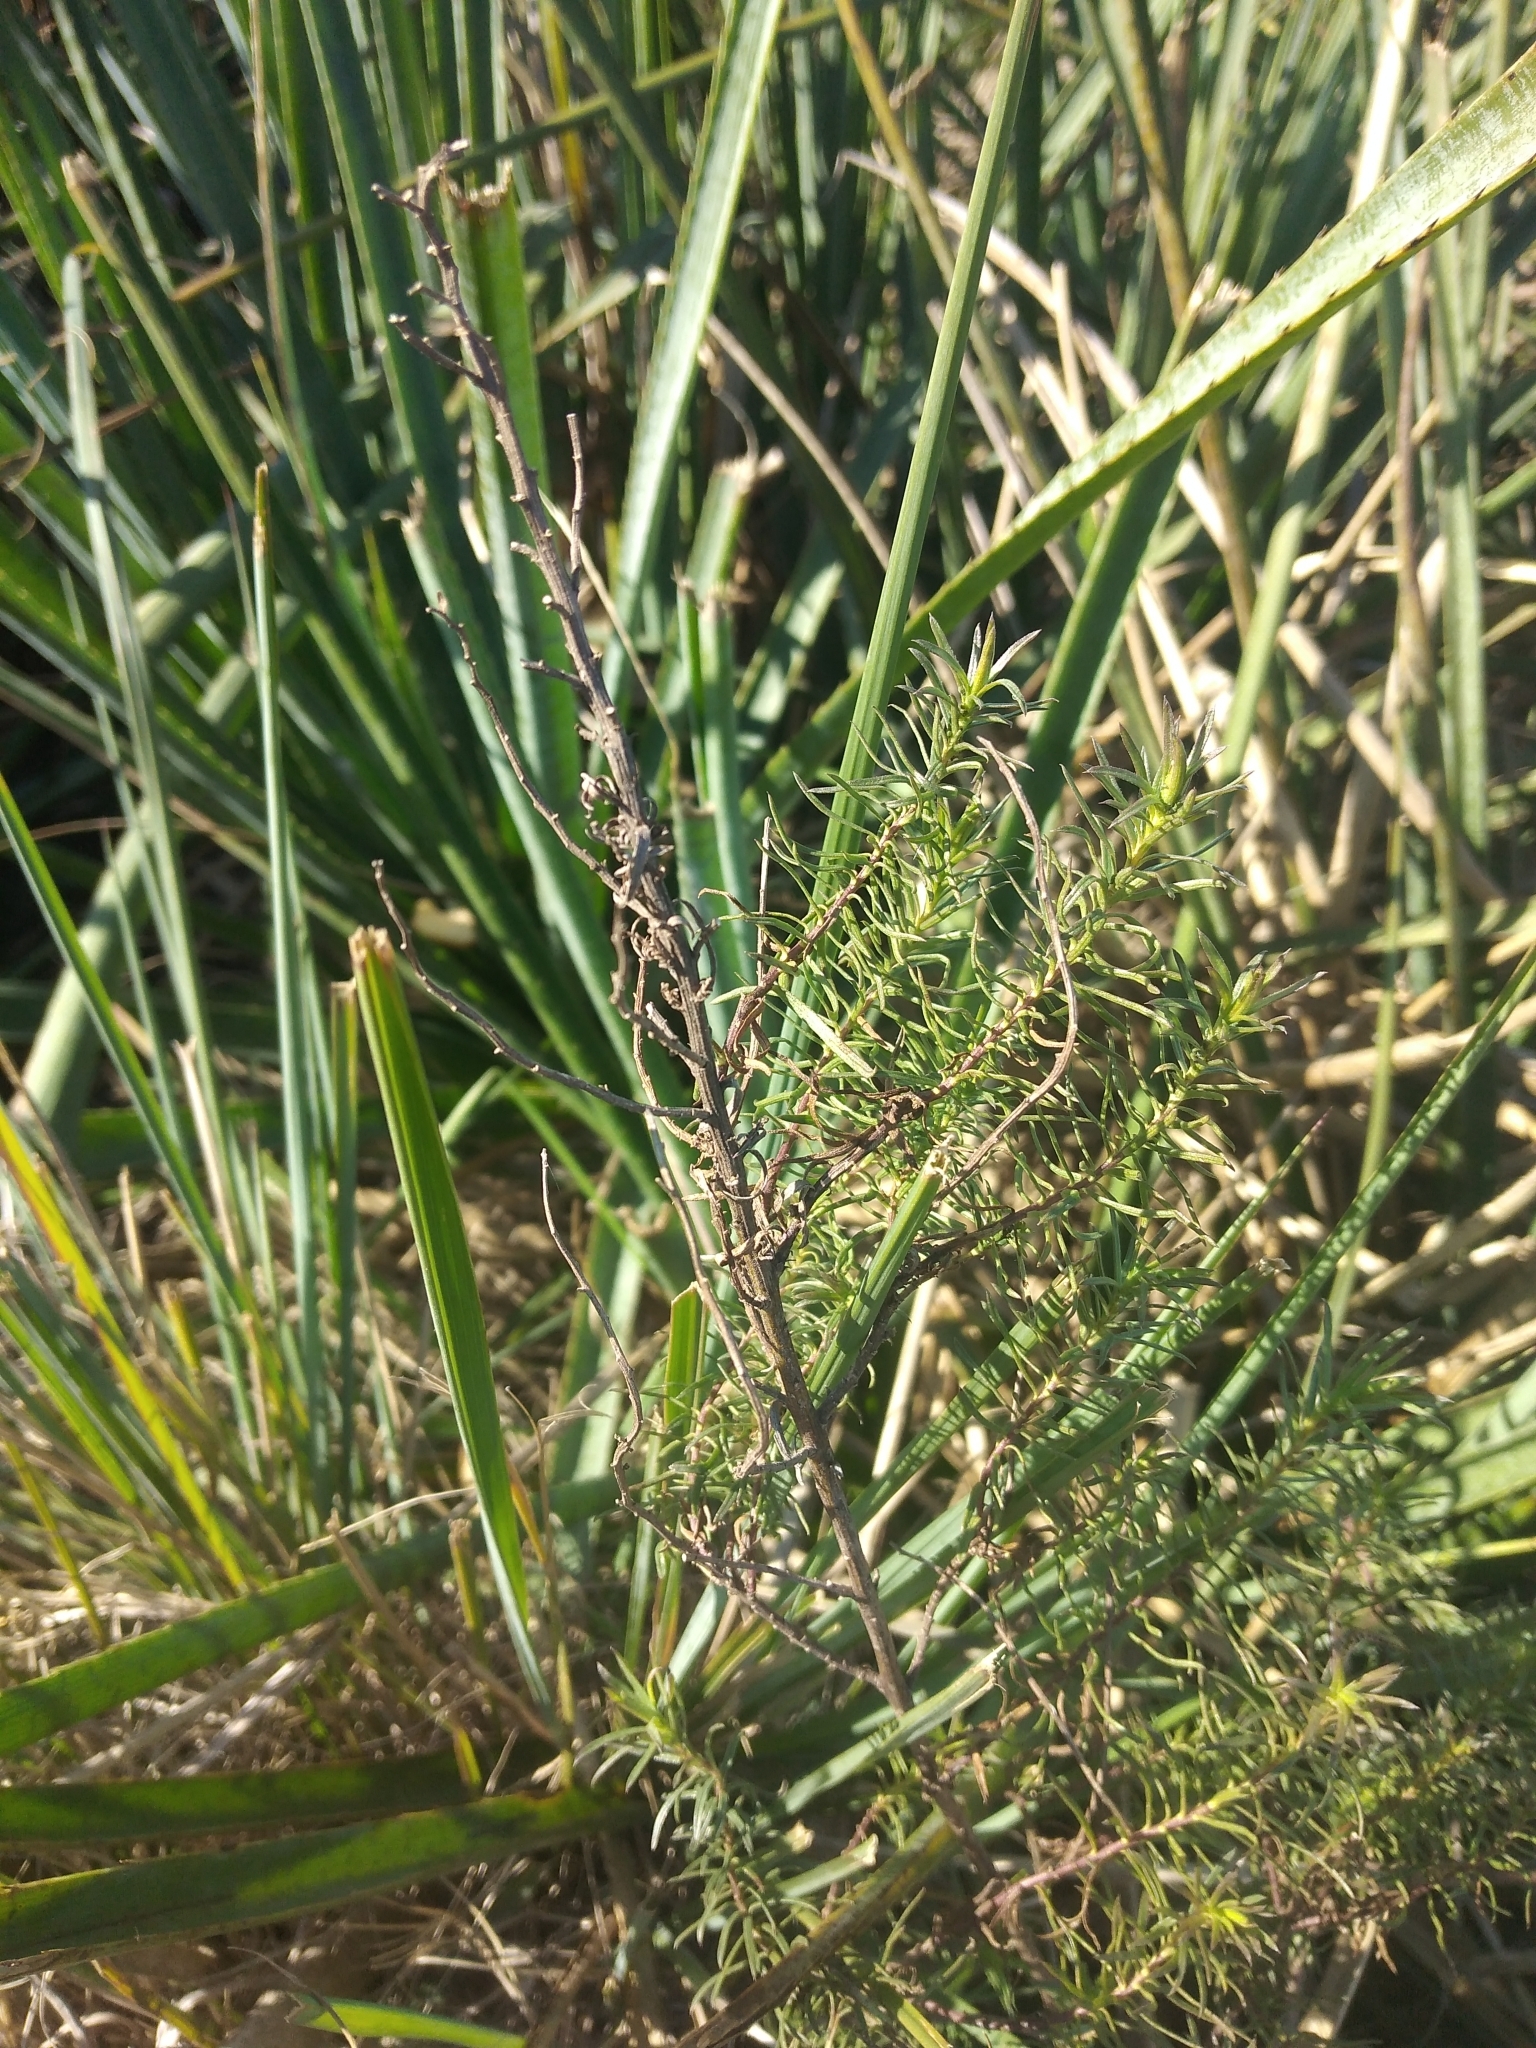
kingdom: Plantae
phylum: Tracheophyta
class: Magnoliopsida
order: Asterales
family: Asteraceae
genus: Baccharis
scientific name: Baccharis coridifolia
